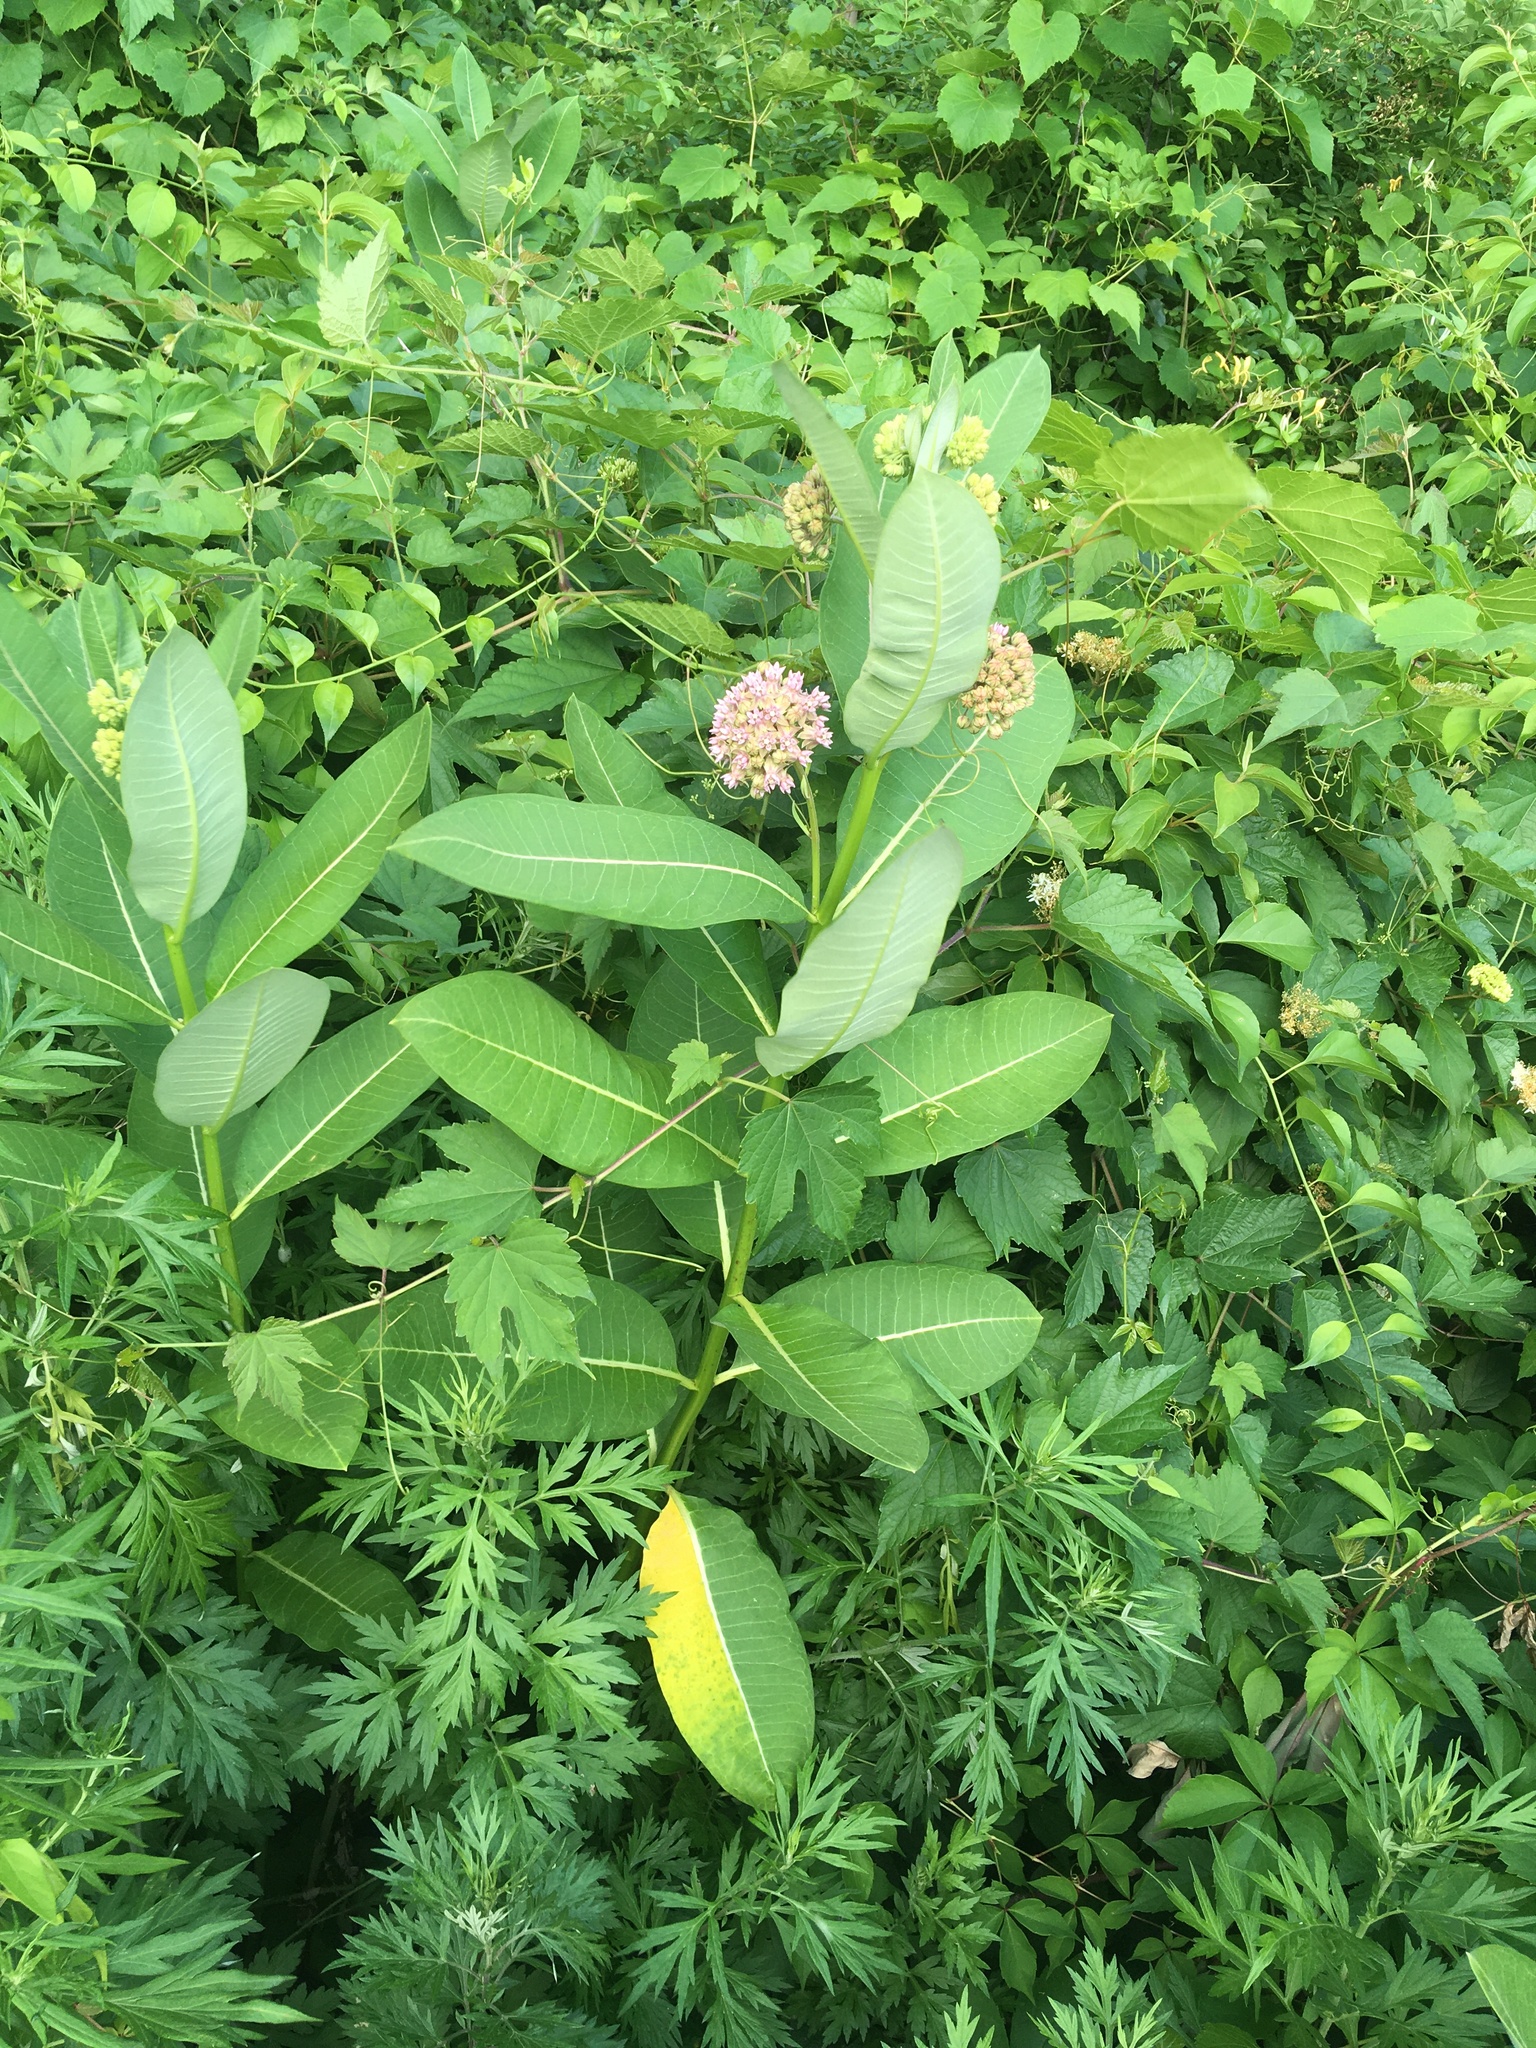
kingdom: Plantae
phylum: Tracheophyta
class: Magnoliopsida
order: Gentianales
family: Apocynaceae
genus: Asclepias
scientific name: Asclepias syriaca
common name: Common milkweed
